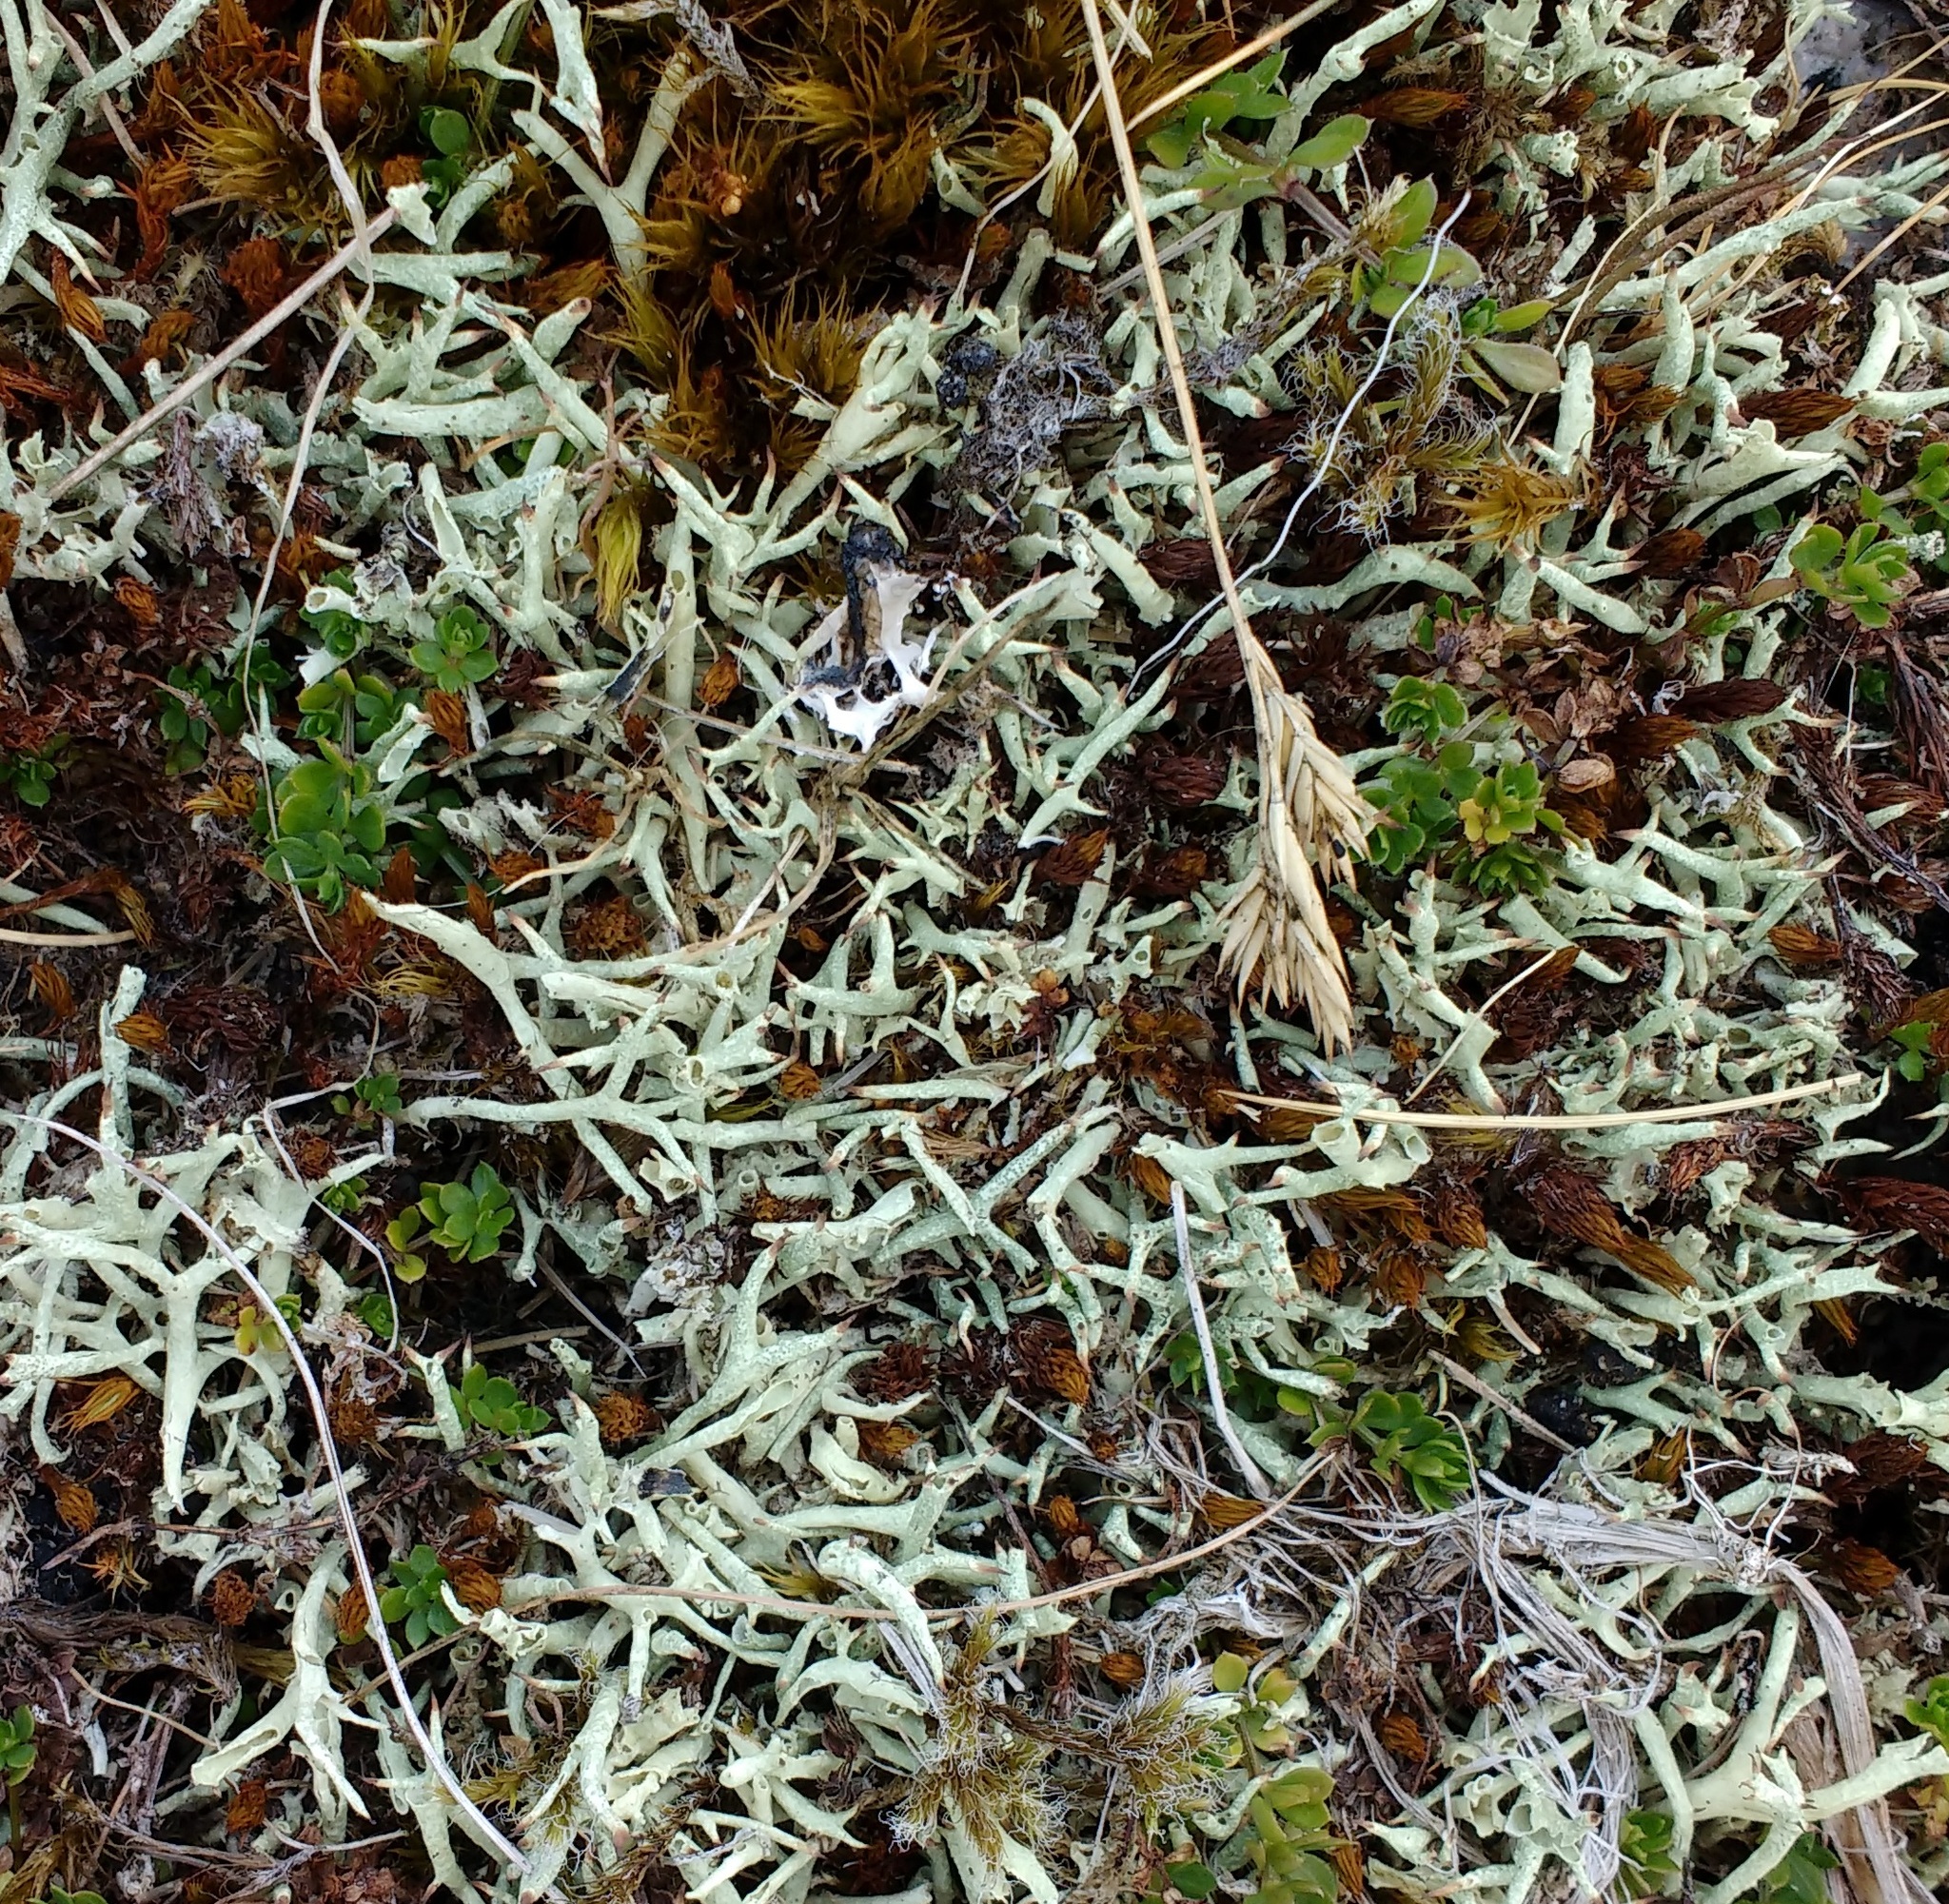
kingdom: Fungi
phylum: Ascomycota
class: Lecanoromycetes
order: Lecanorales
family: Cladoniaceae
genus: Cladonia
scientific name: Cladonia uncialis
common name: Thorn lichen
